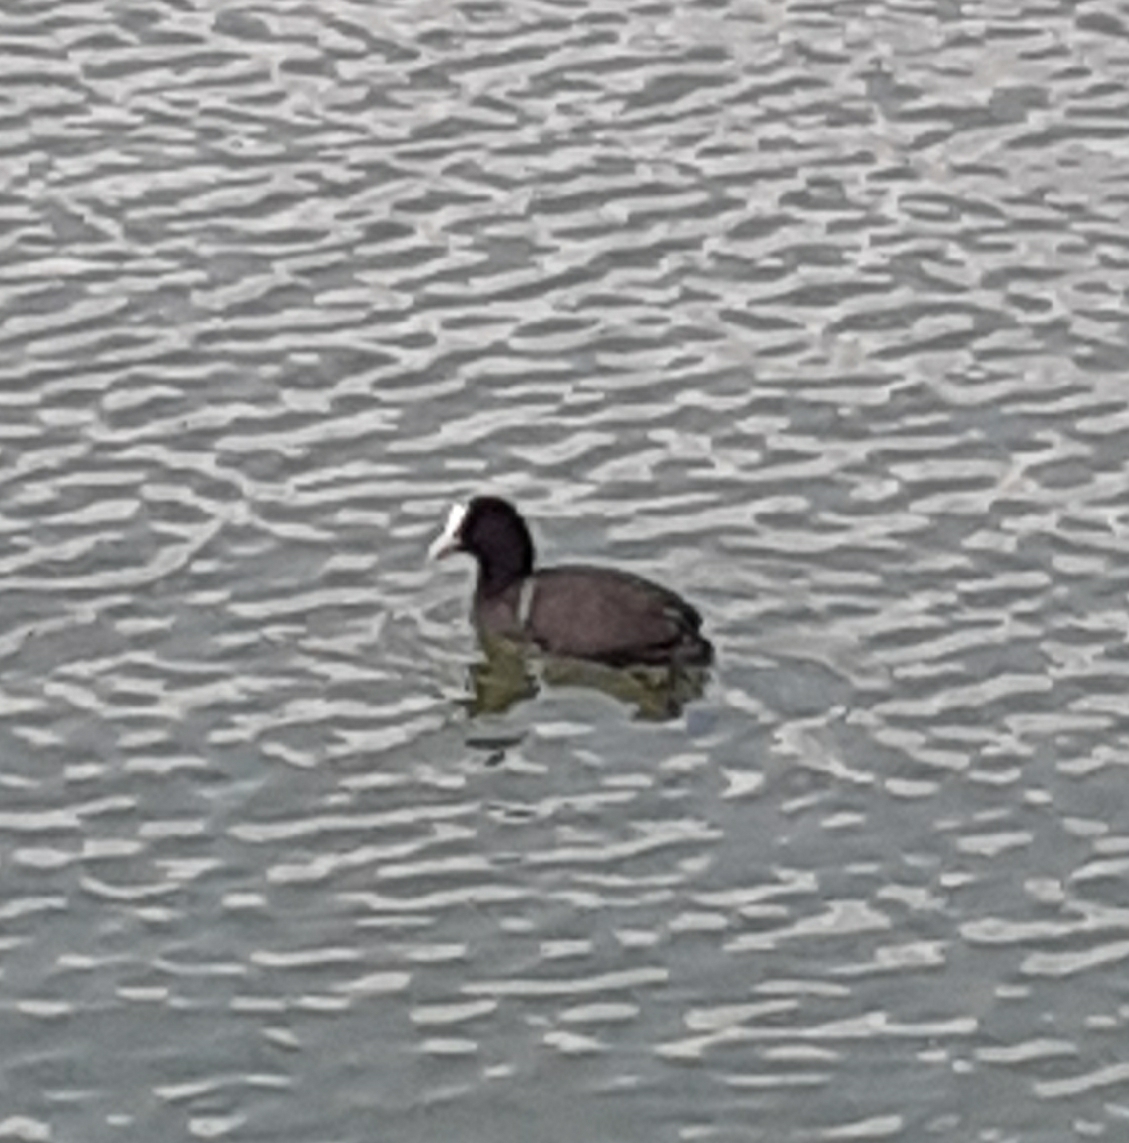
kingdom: Animalia
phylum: Chordata
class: Aves
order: Gruiformes
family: Rallidae
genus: Fulica
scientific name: Fulica atra
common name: Eurasian coot
